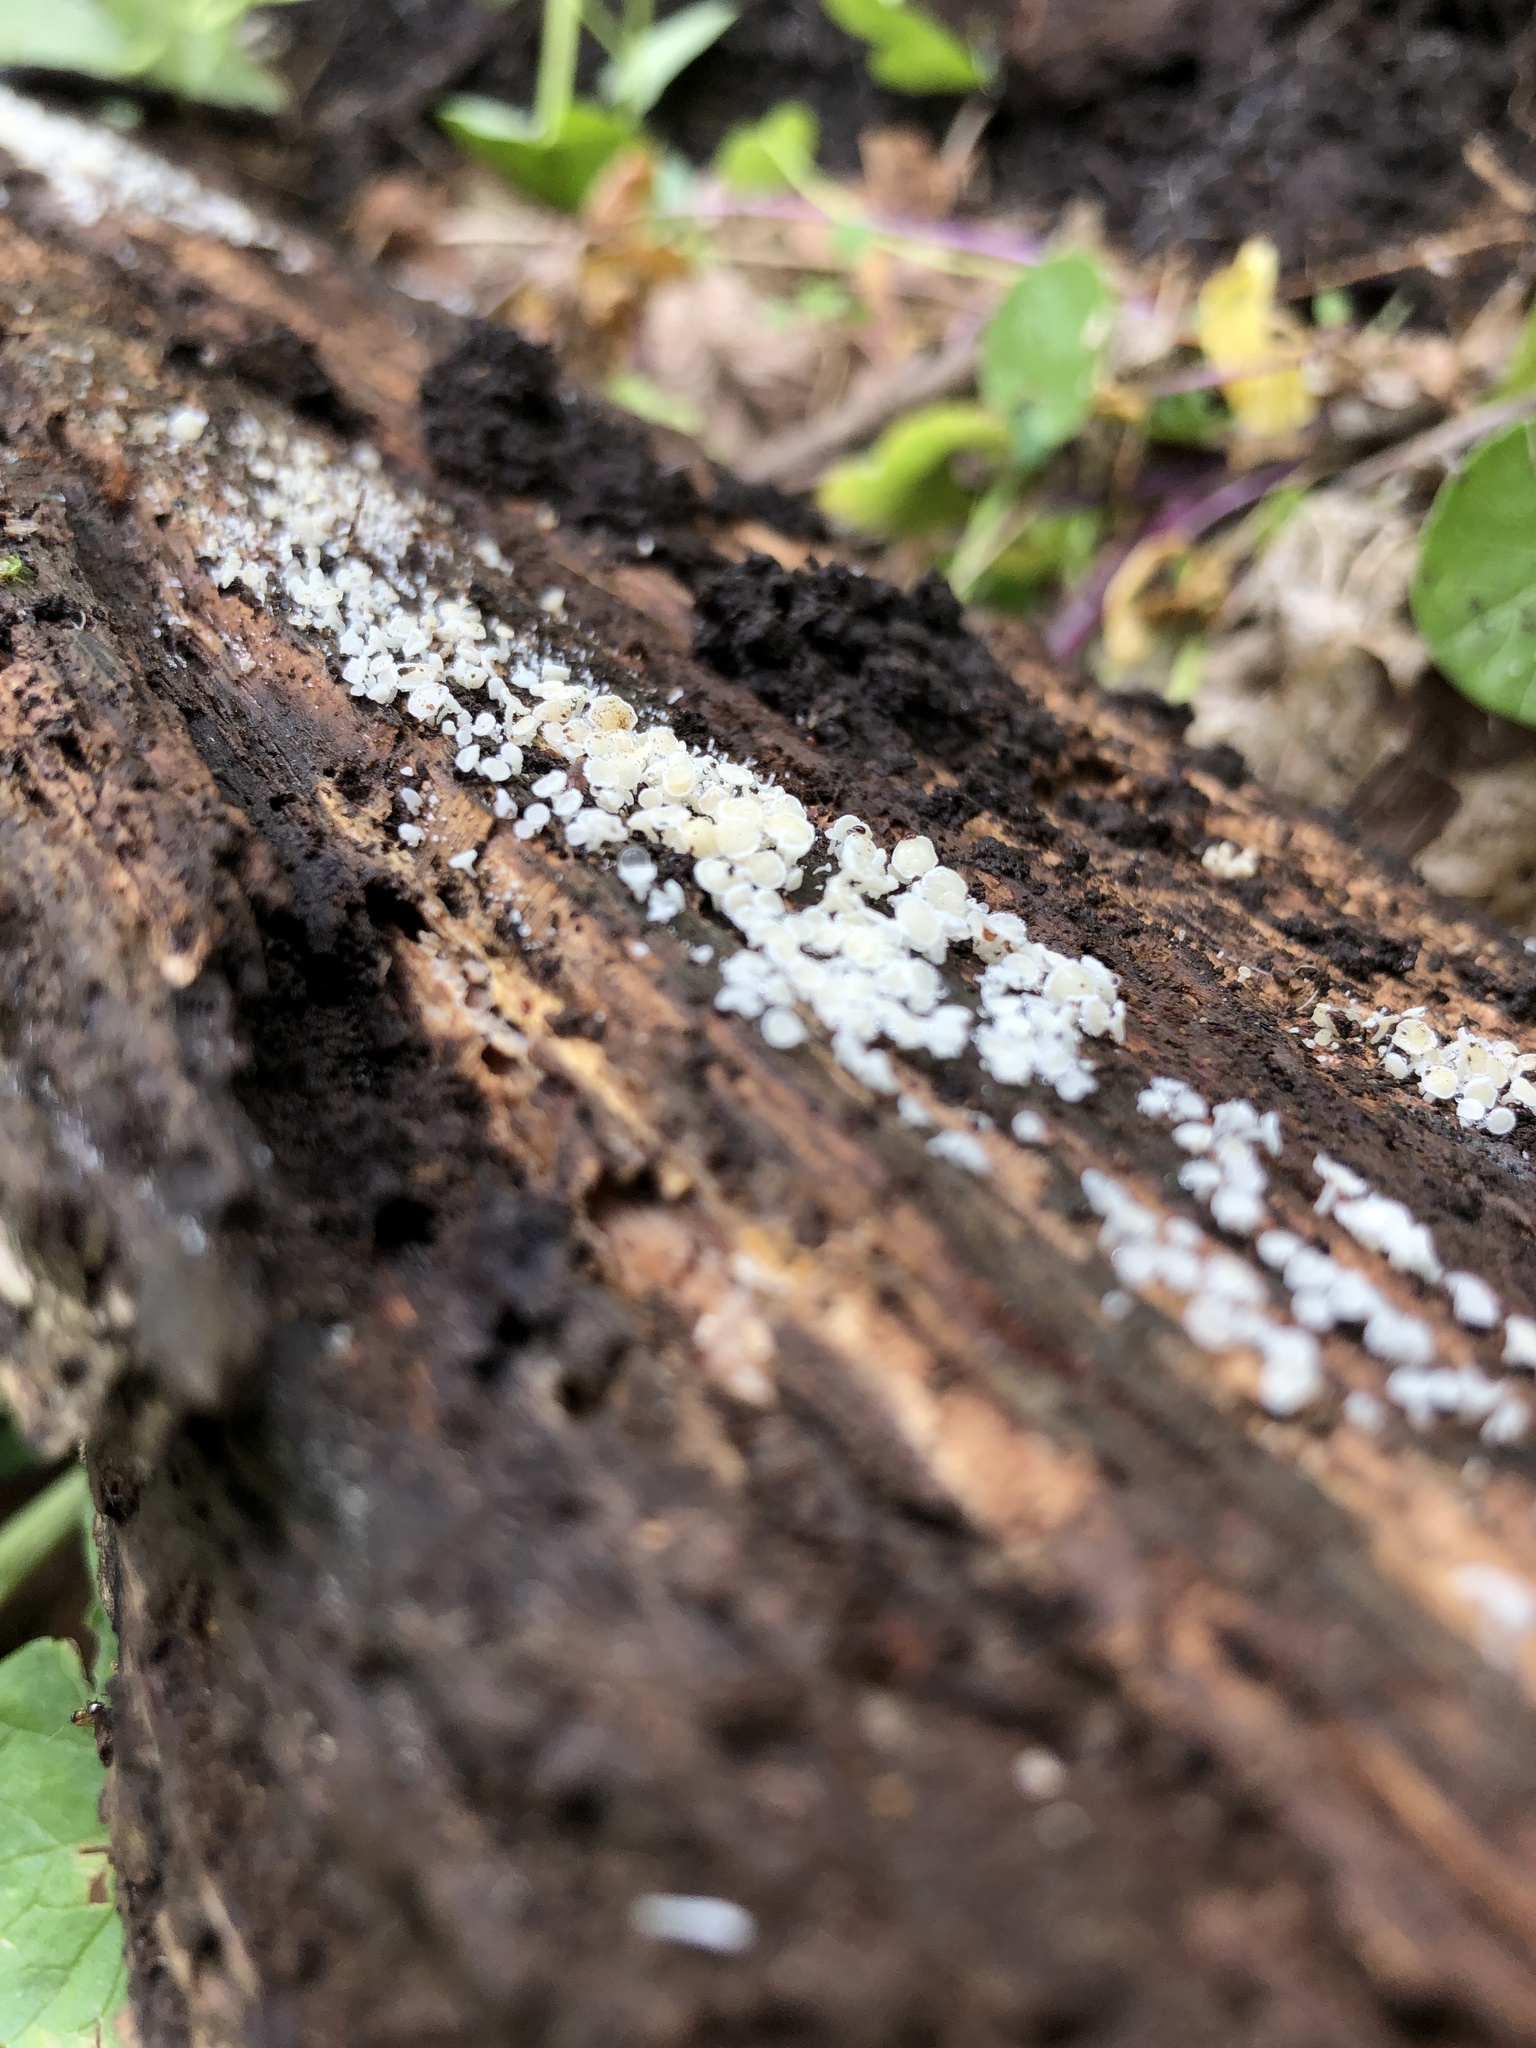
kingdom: Fungi
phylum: Ascomycota
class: Leotiomycetes
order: Helotiales
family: Lachnaceae
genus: Lachnum
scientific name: Lachnum virgineum
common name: Snowy disco
